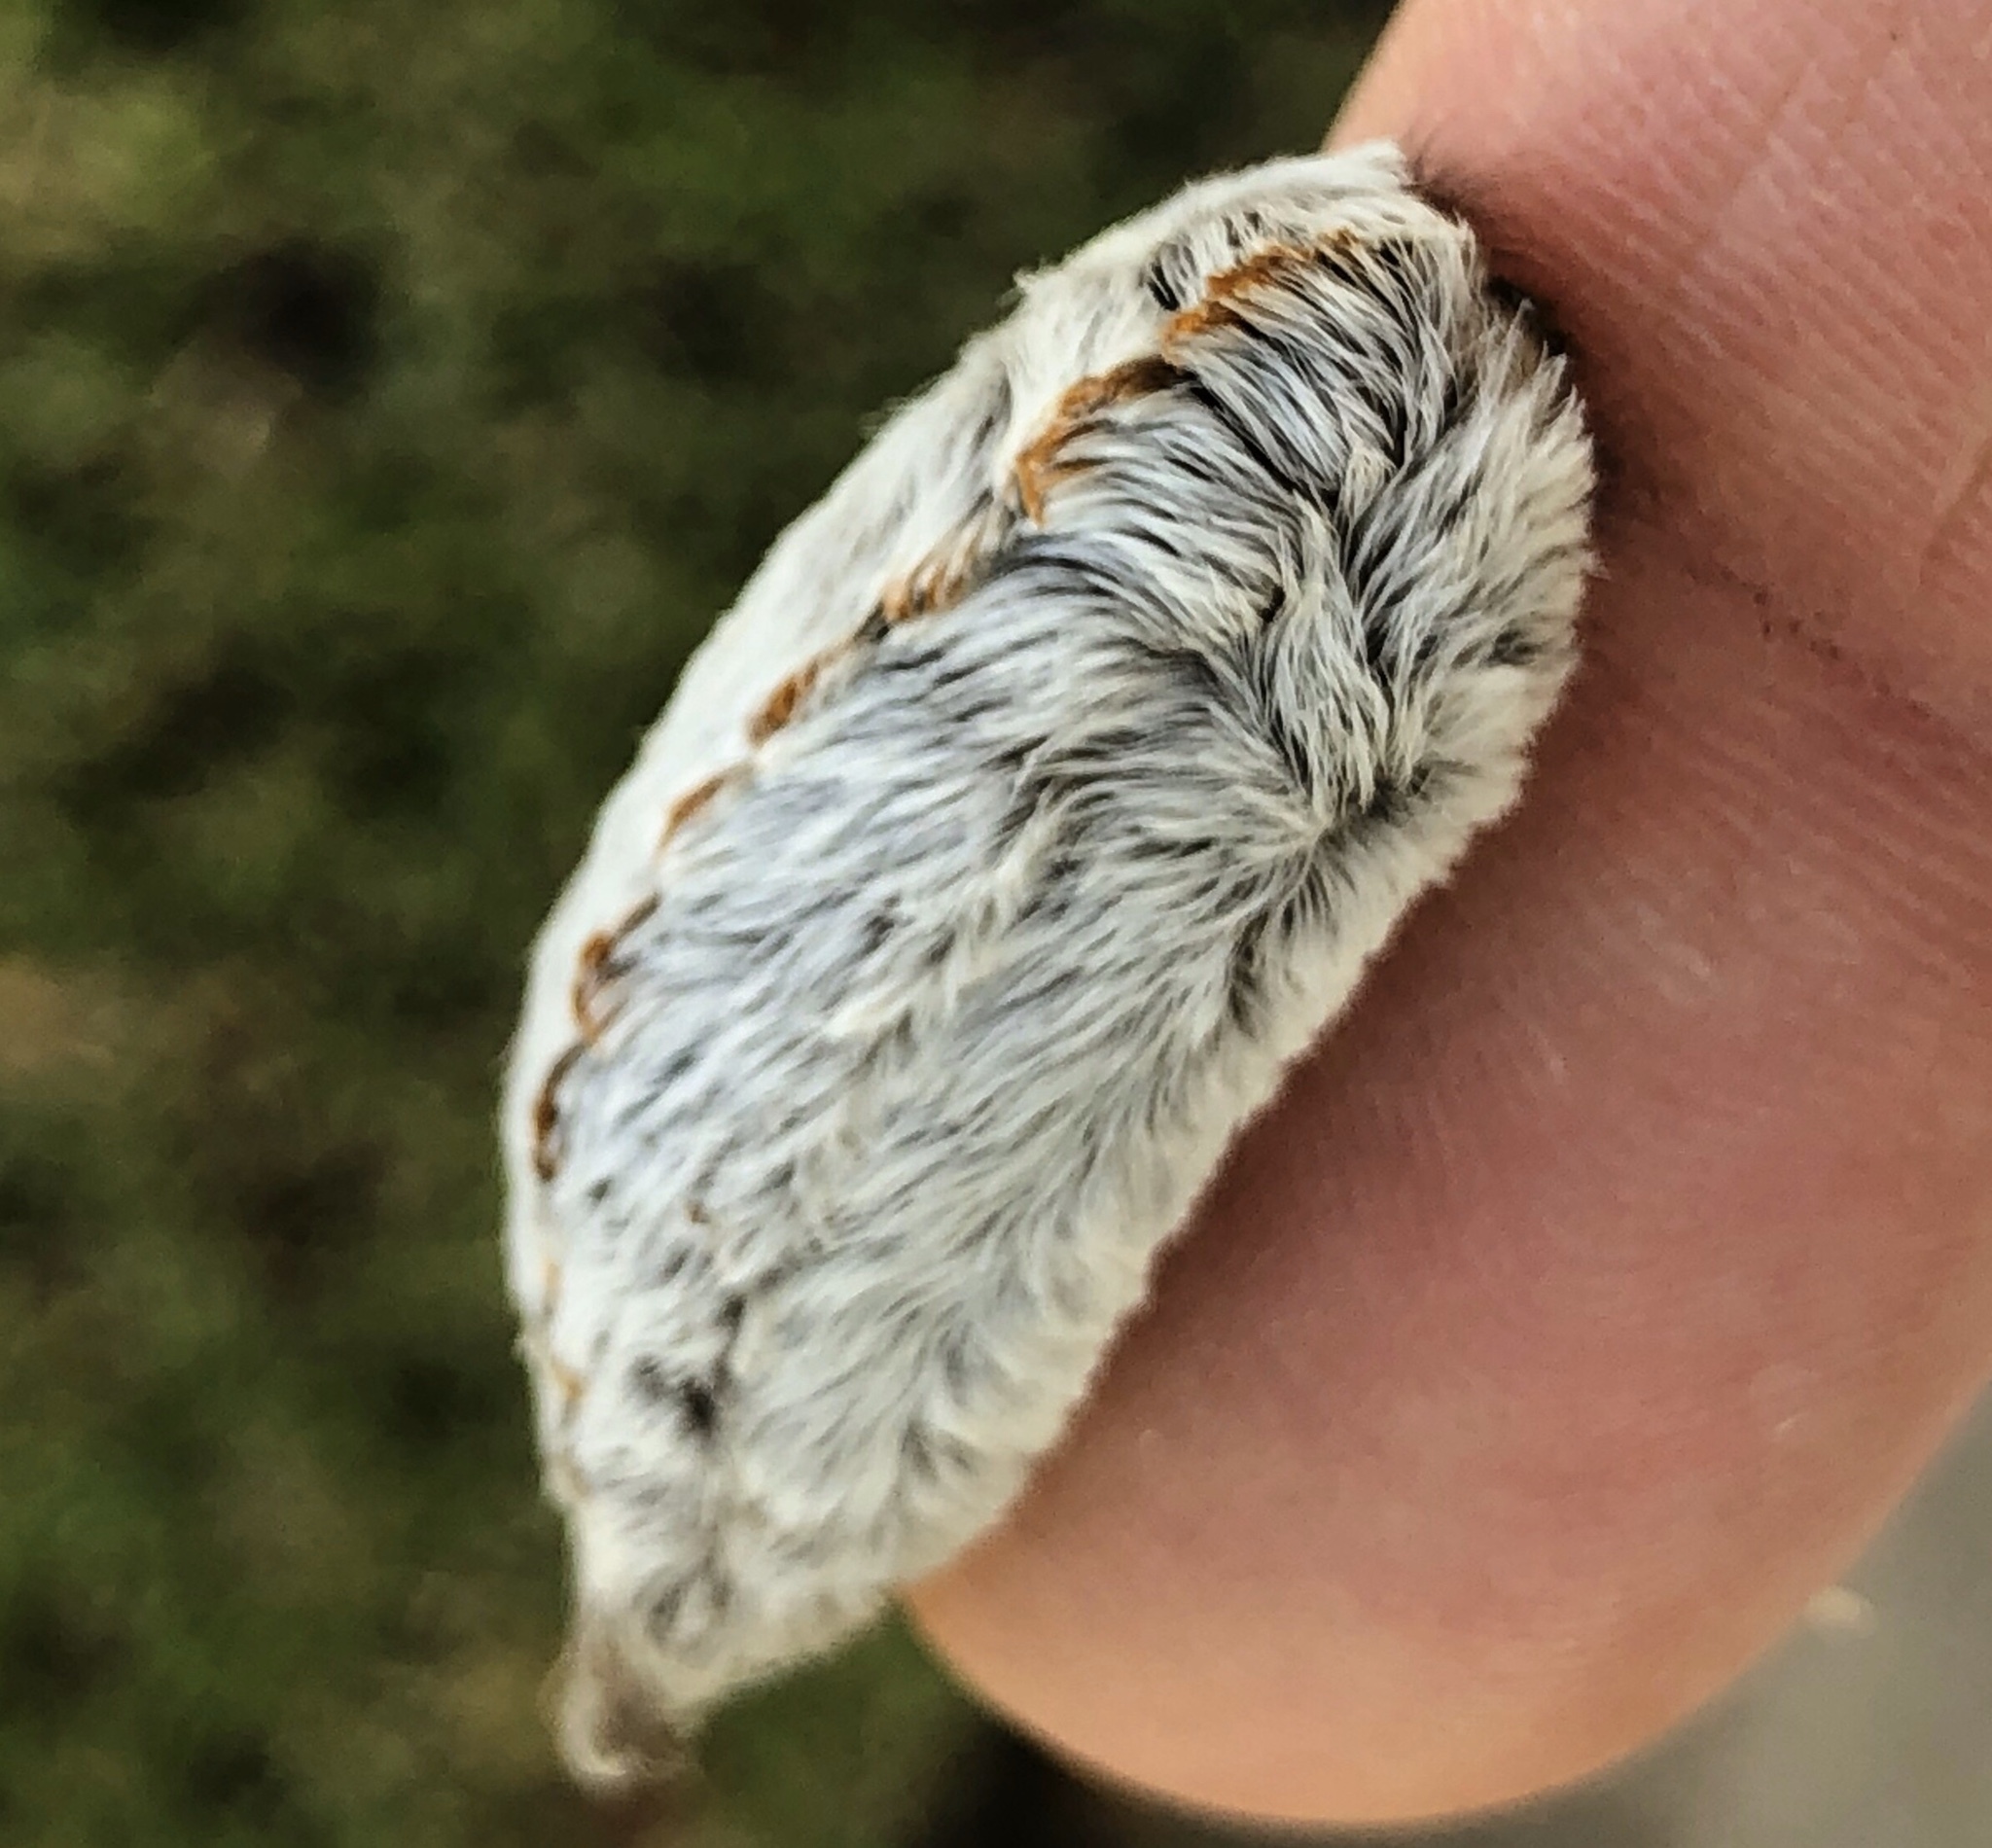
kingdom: Animalia
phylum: Arthropoda
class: Insecta
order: Lepidoptera
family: Megalopygidae
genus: Megalopyge
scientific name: Megalopyge opercularis
